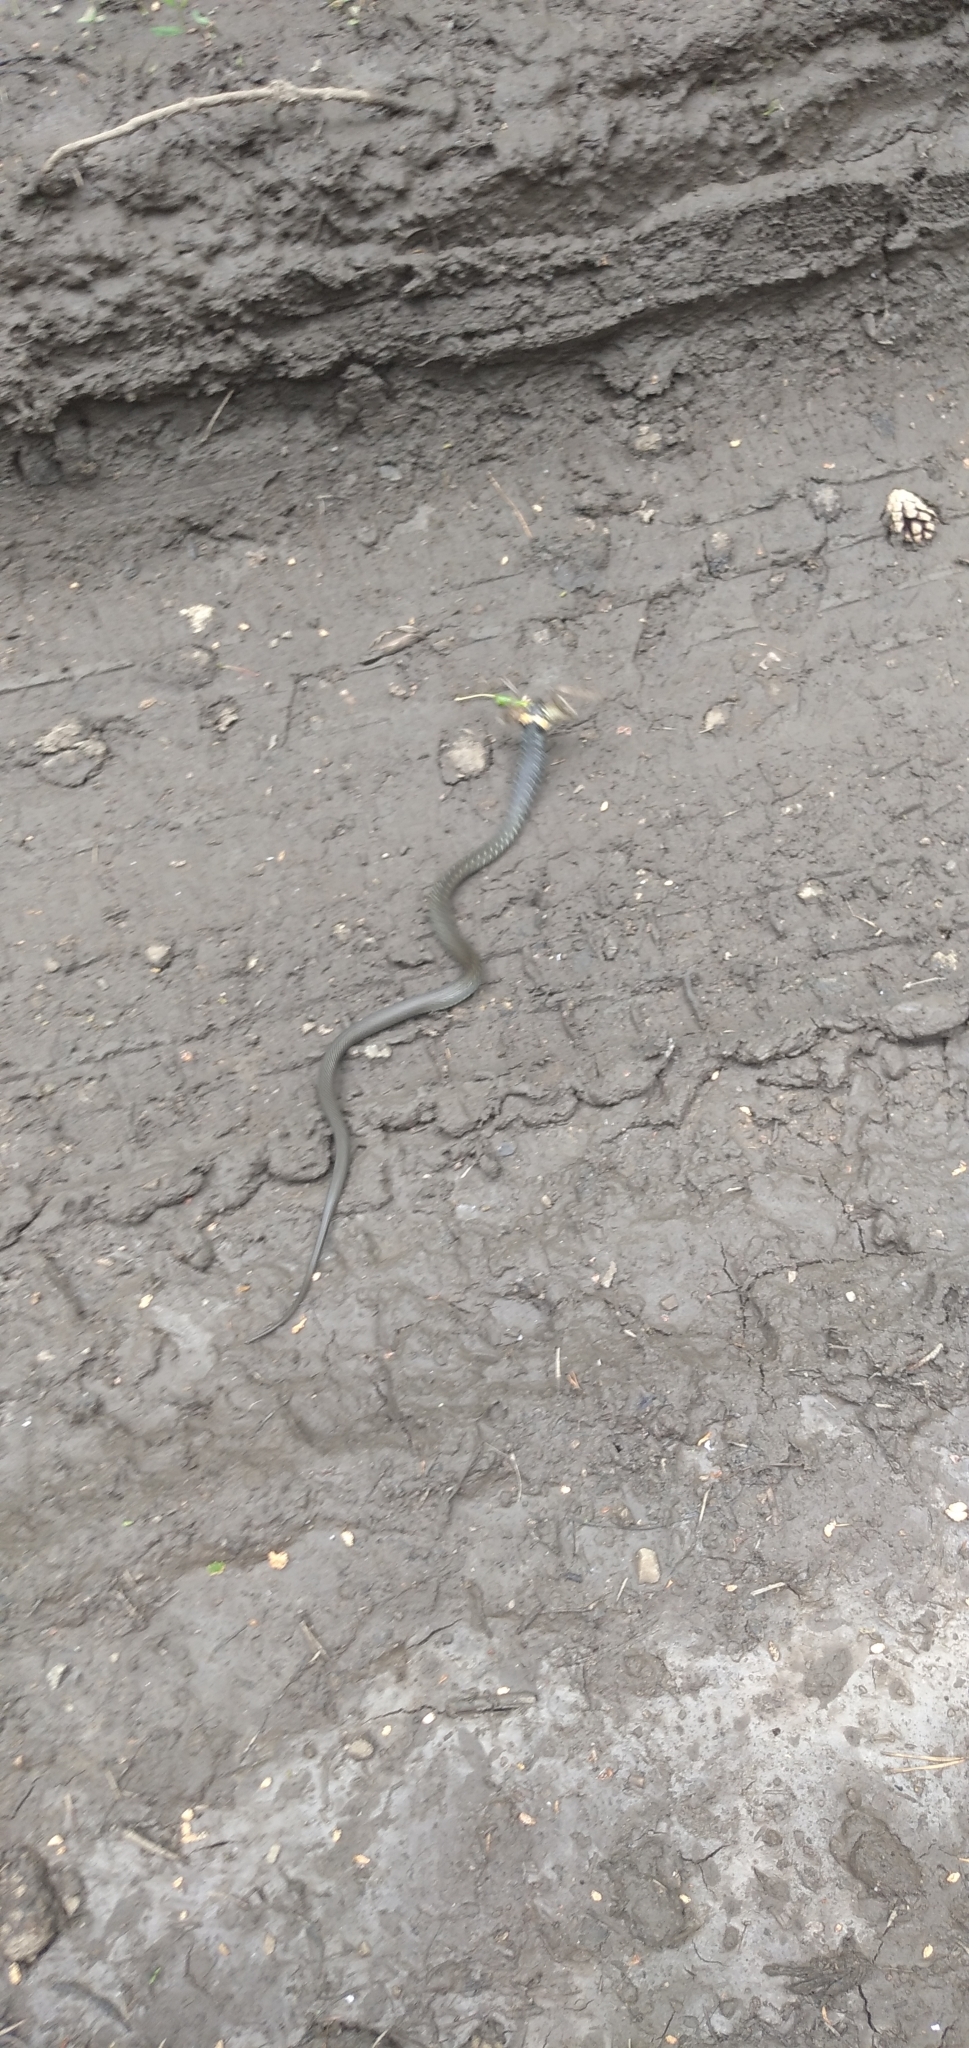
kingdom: Animalia
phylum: Chordata
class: Squamata
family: Colubridae
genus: Natrix
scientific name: Natrix natrix
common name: Grass snake
